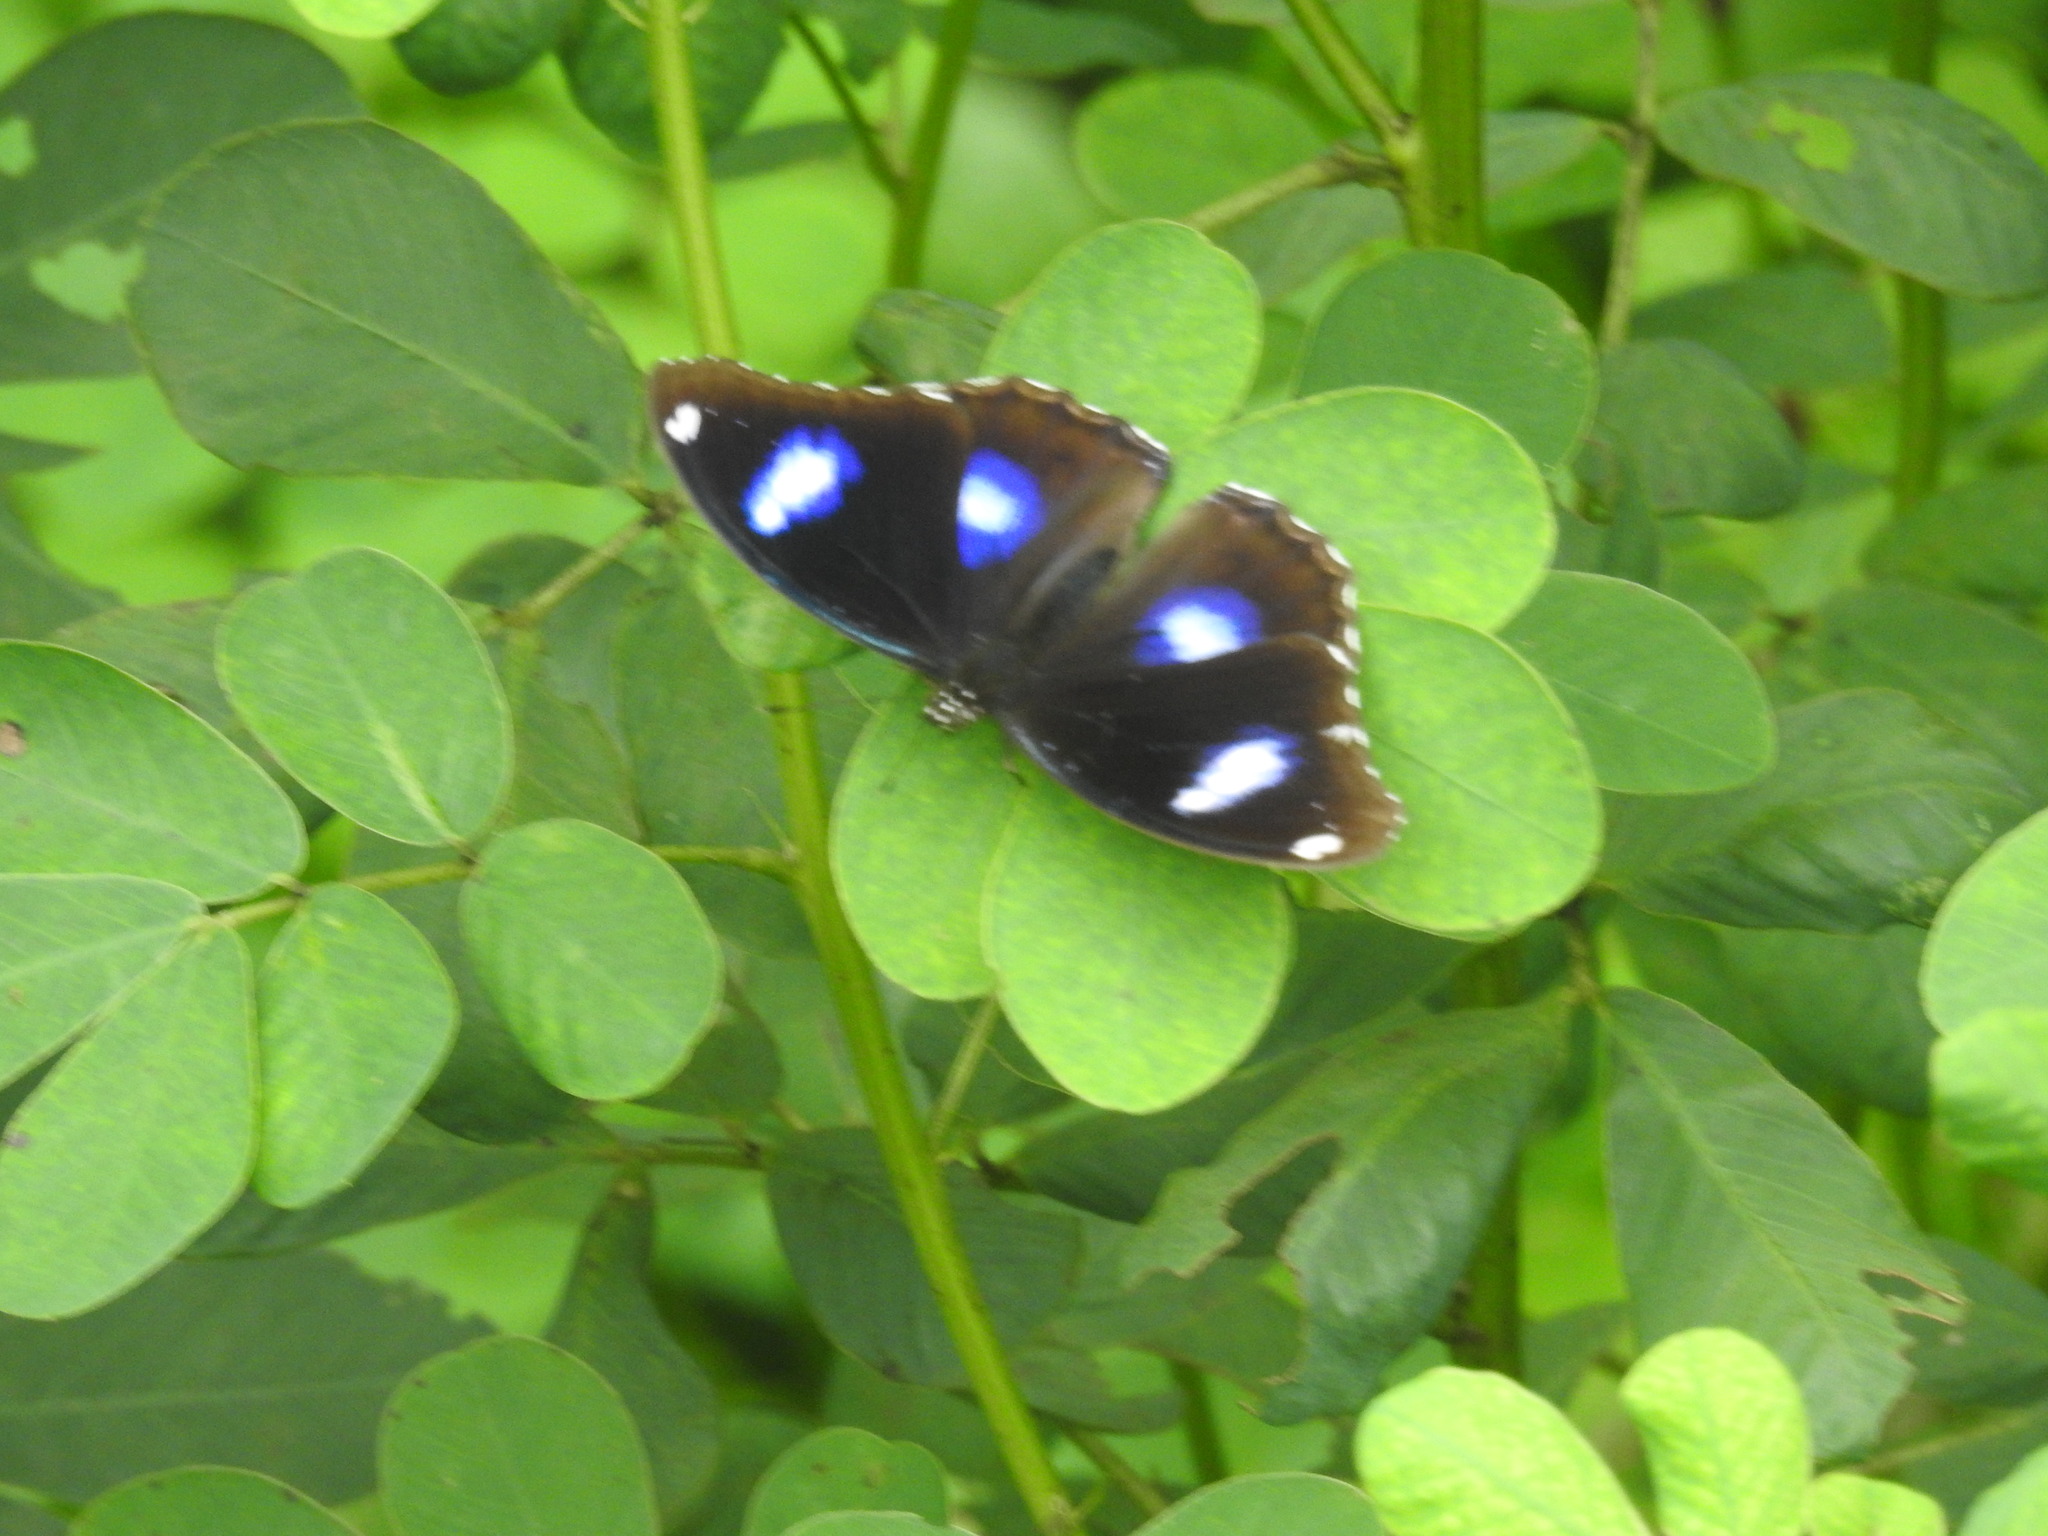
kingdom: Animalia
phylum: Arthropoda
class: Insecta
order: Lepidoptera
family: Nymphalidae
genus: Hypolimnas
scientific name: Hypolimnas bolina
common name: Great eggfly
